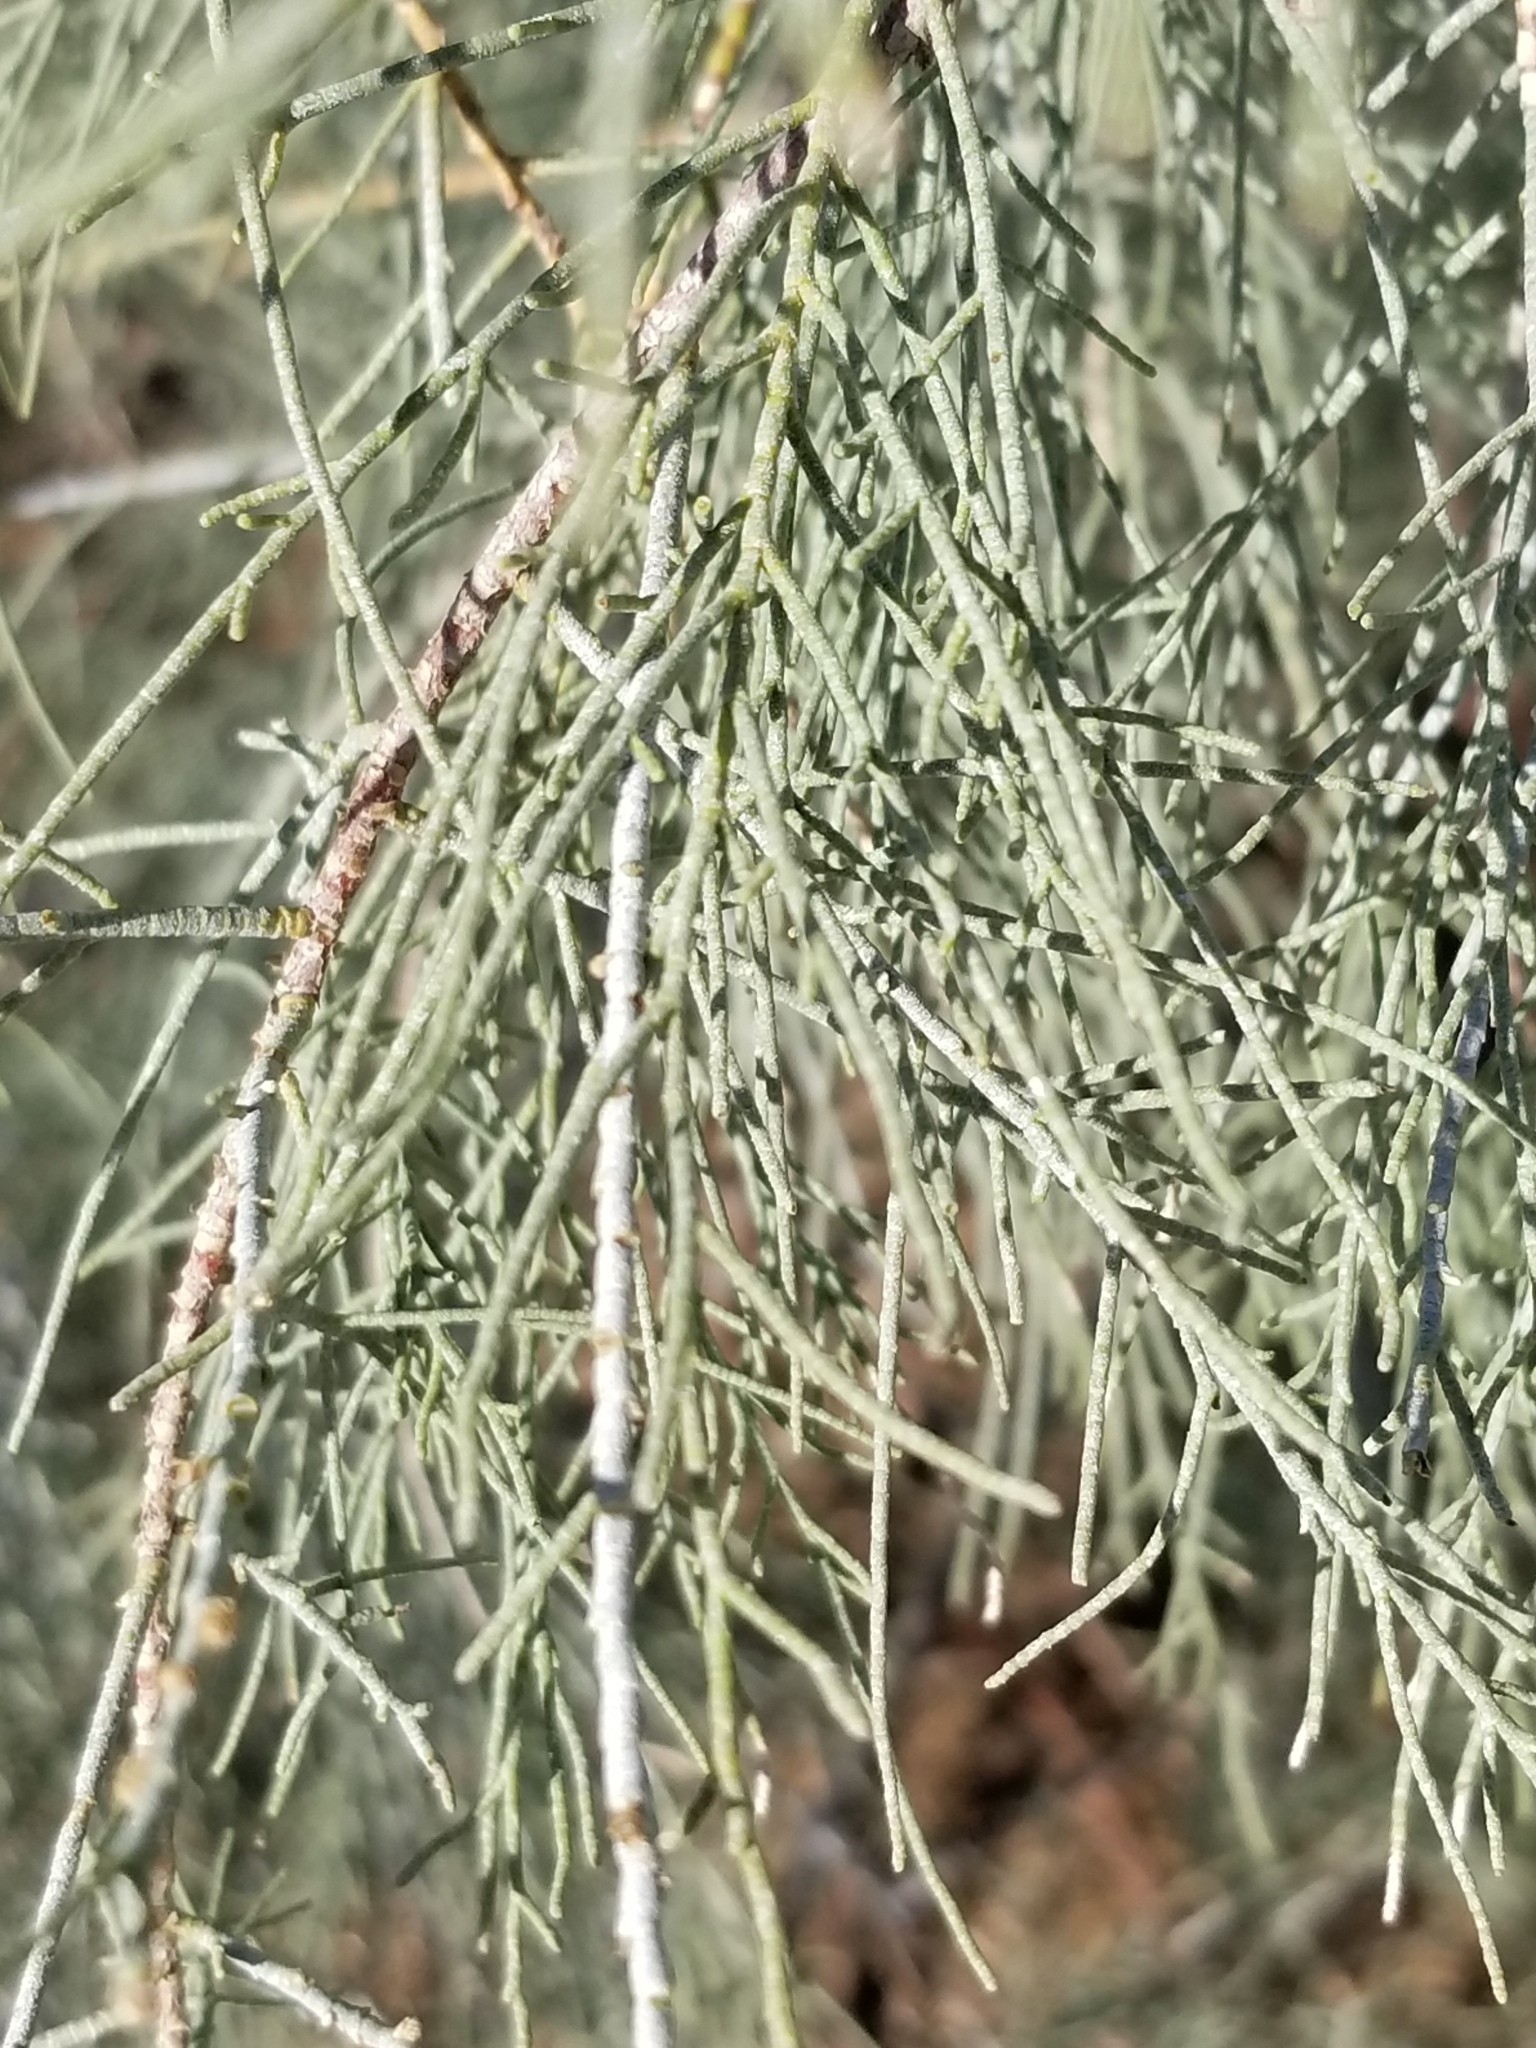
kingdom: Plantae
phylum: Tracheophyta
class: Magnoliopsida
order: Caryophyllales
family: Tamaricaceae
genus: Tamarix
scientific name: Tamarix aphylla
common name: Athel tamarisk
